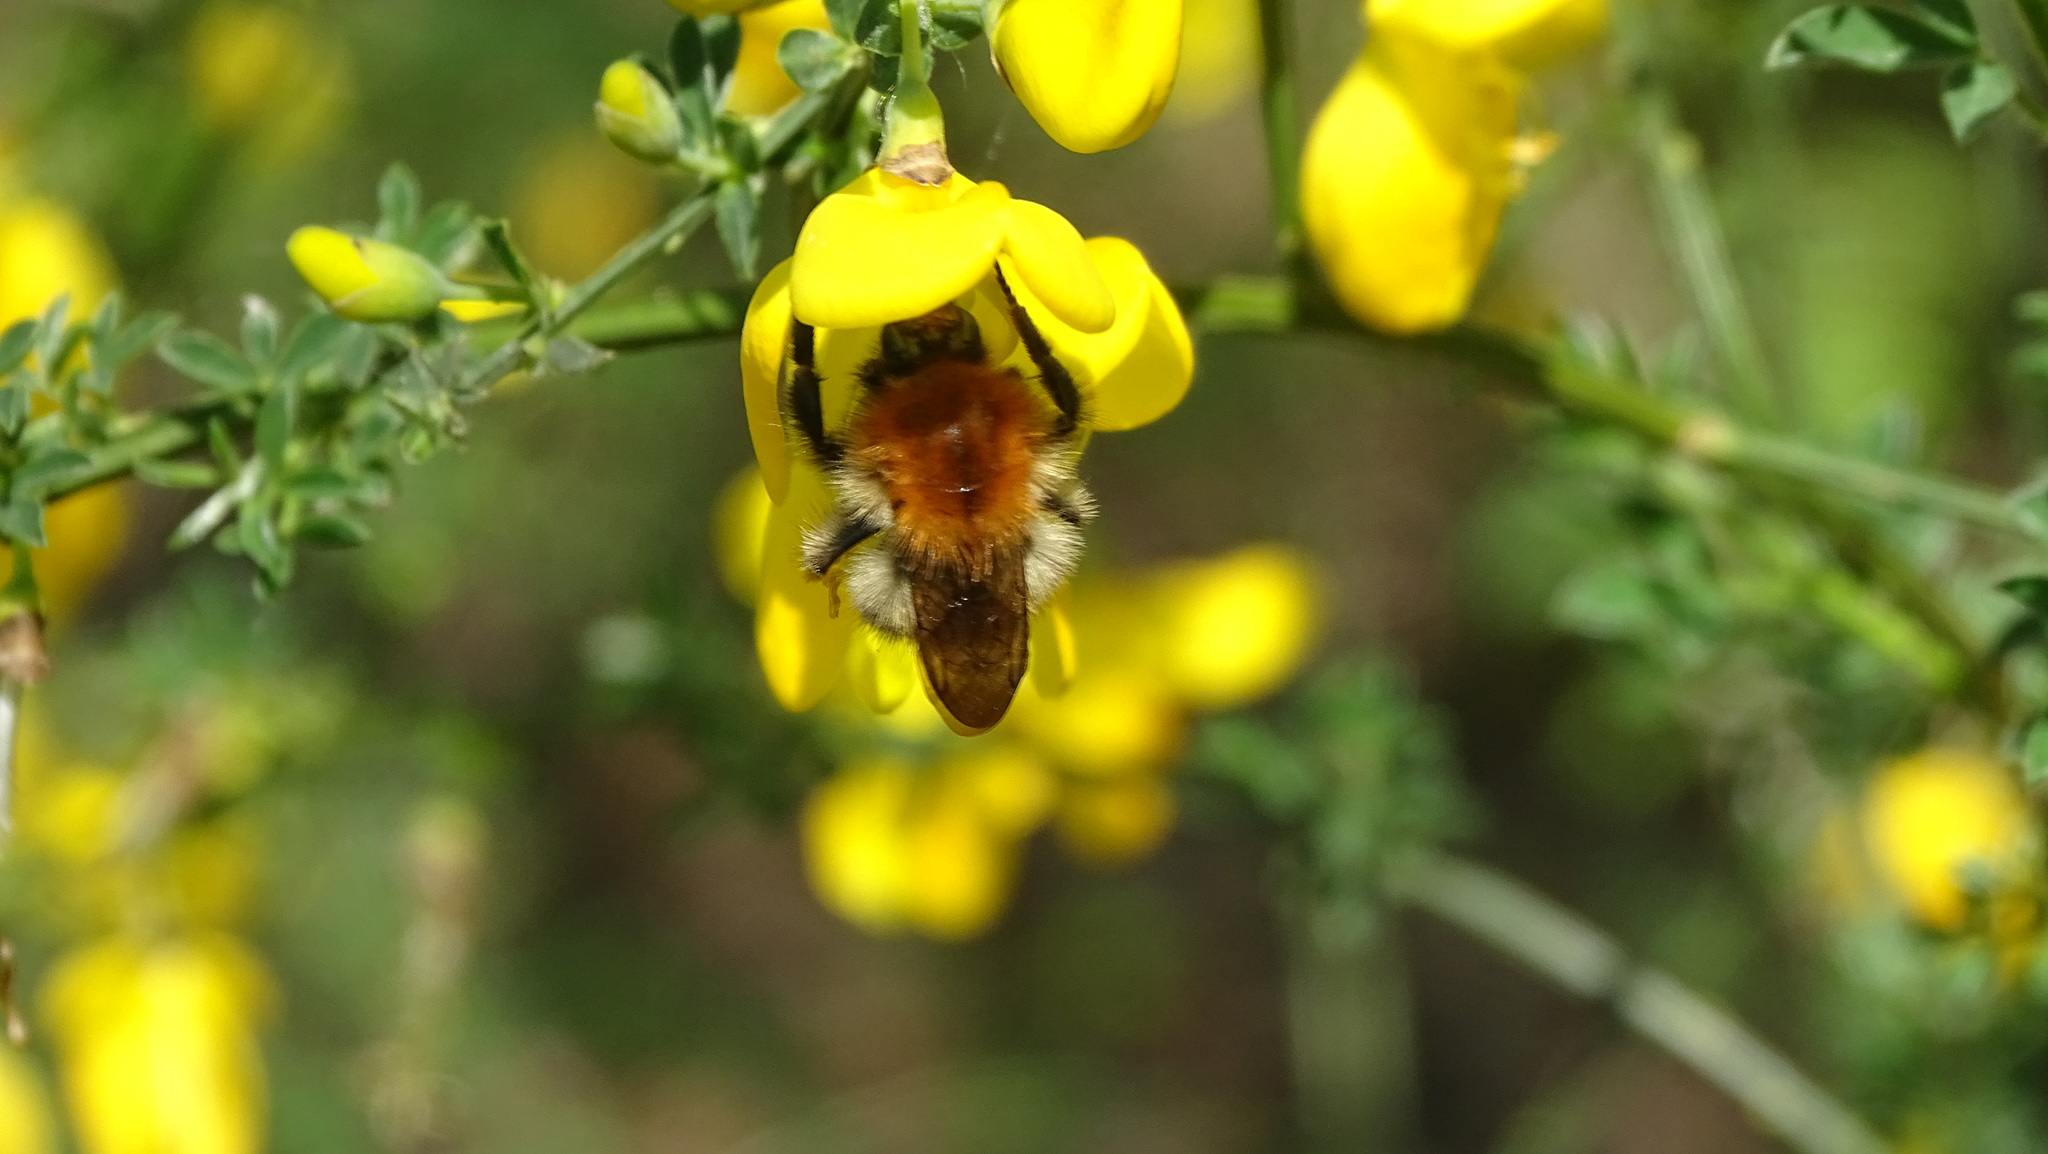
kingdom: Animalia
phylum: Arthropoda
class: Insecta
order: Hymenoptera
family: Apidae
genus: Bombus
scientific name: Bombus pascuorum
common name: Common carder bee
